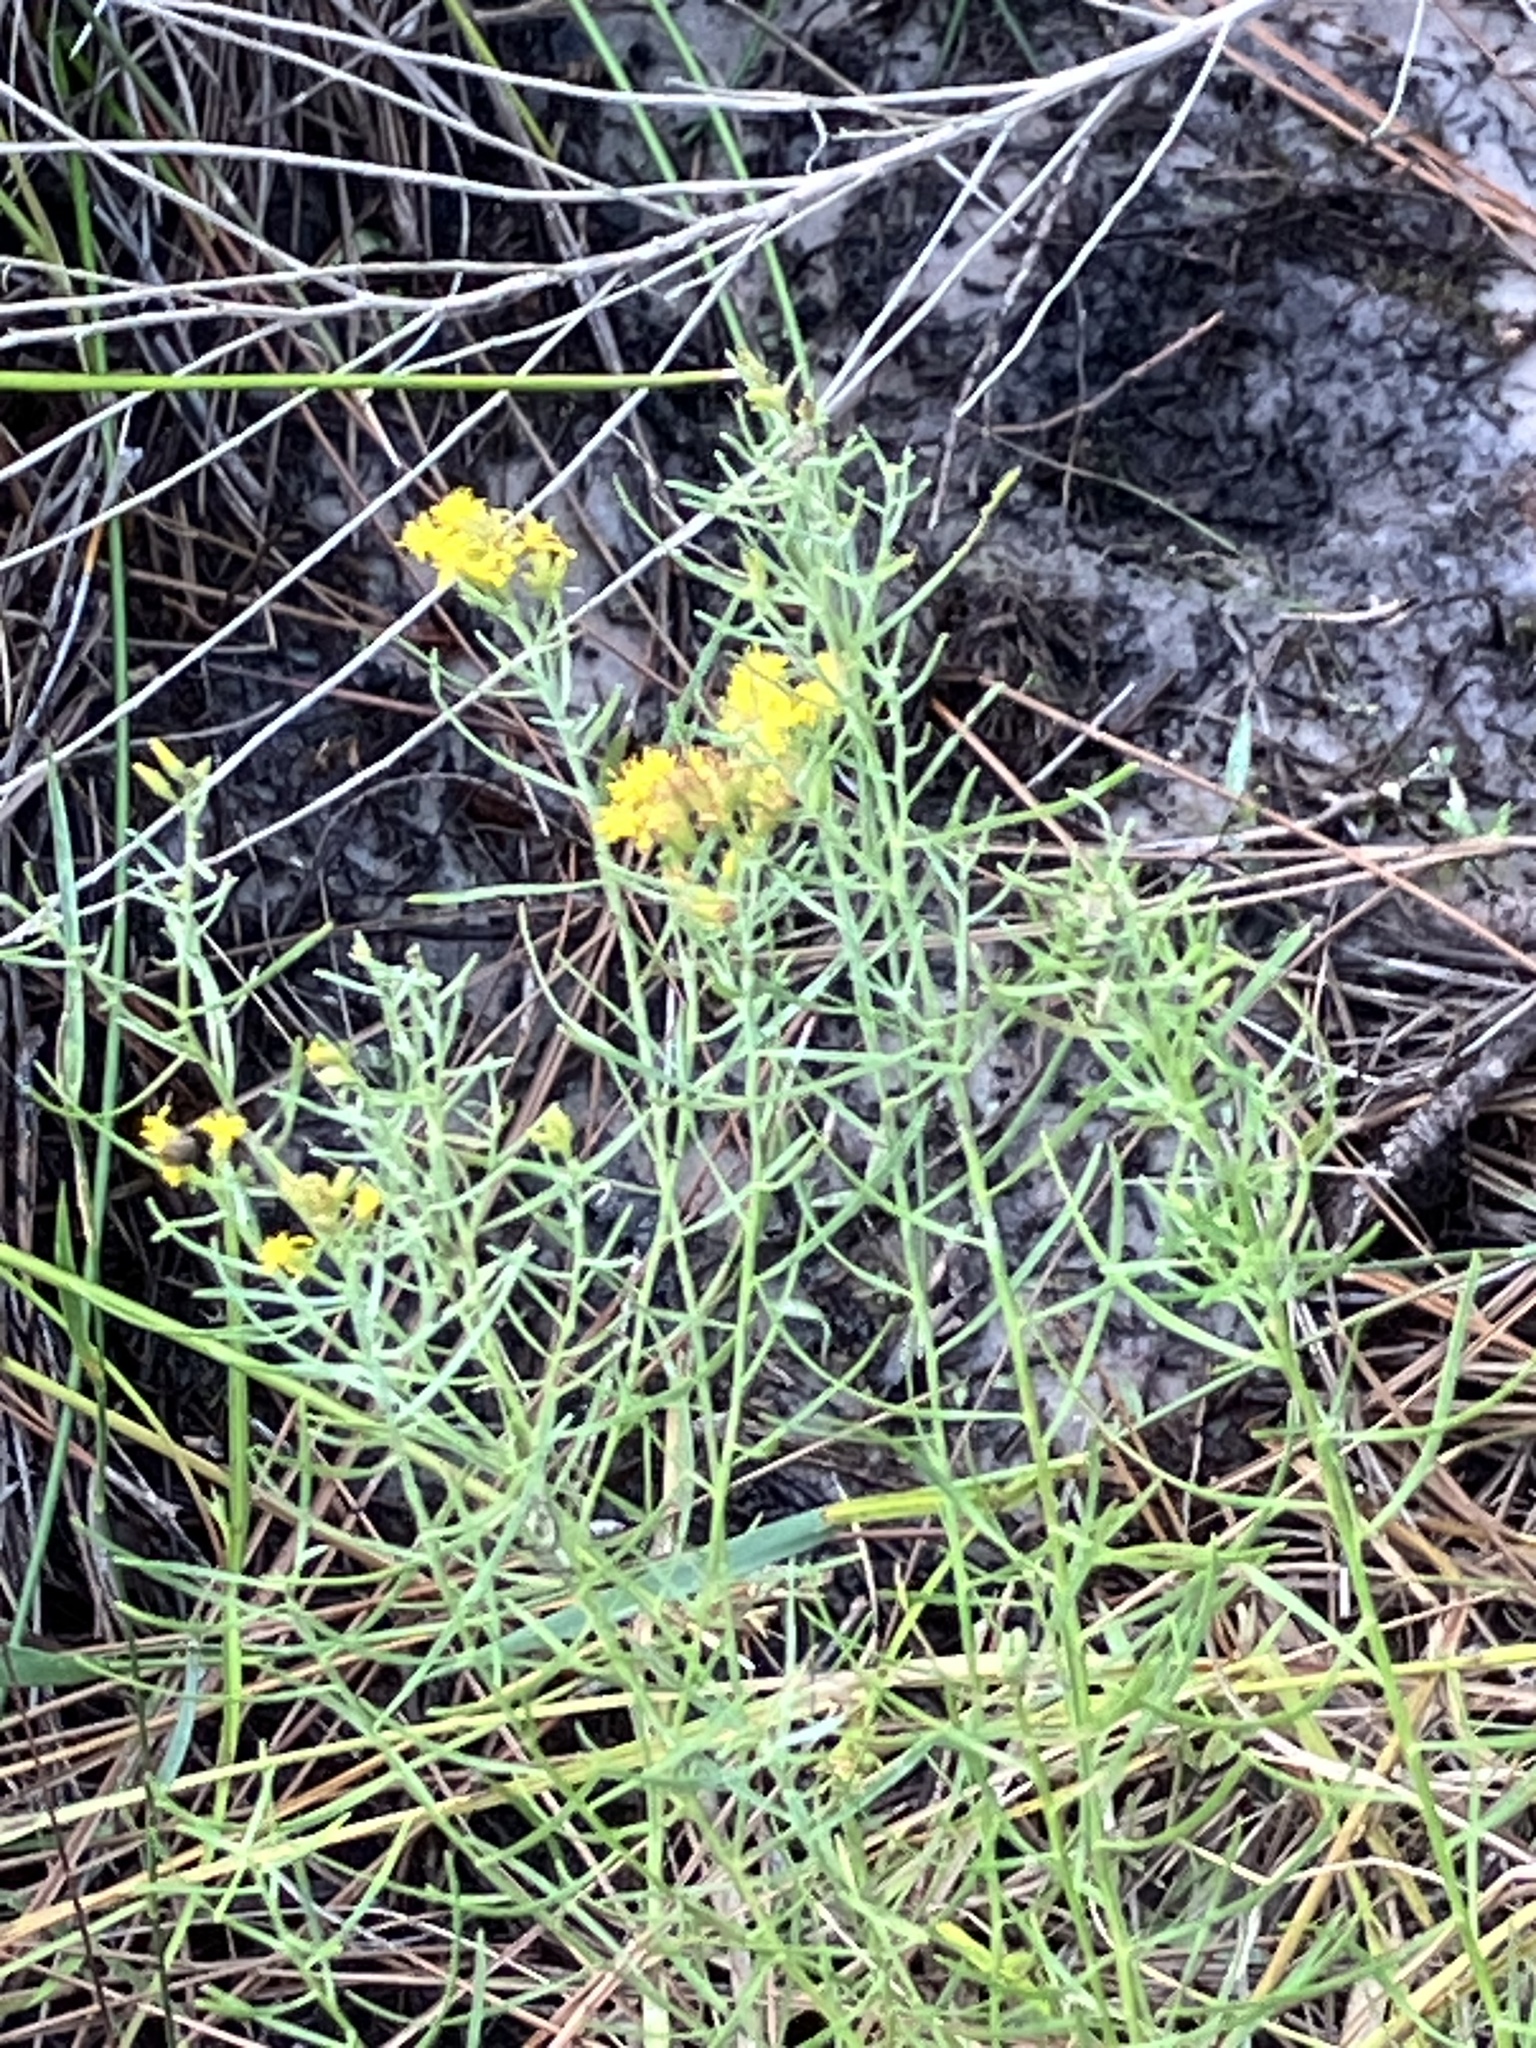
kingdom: Plantae
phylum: Tracheophyta
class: Magnoliopsida
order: Asterales
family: Asteraceae
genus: Euthamia
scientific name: Euthamia caroliniana
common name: Coastal plain goldentop
